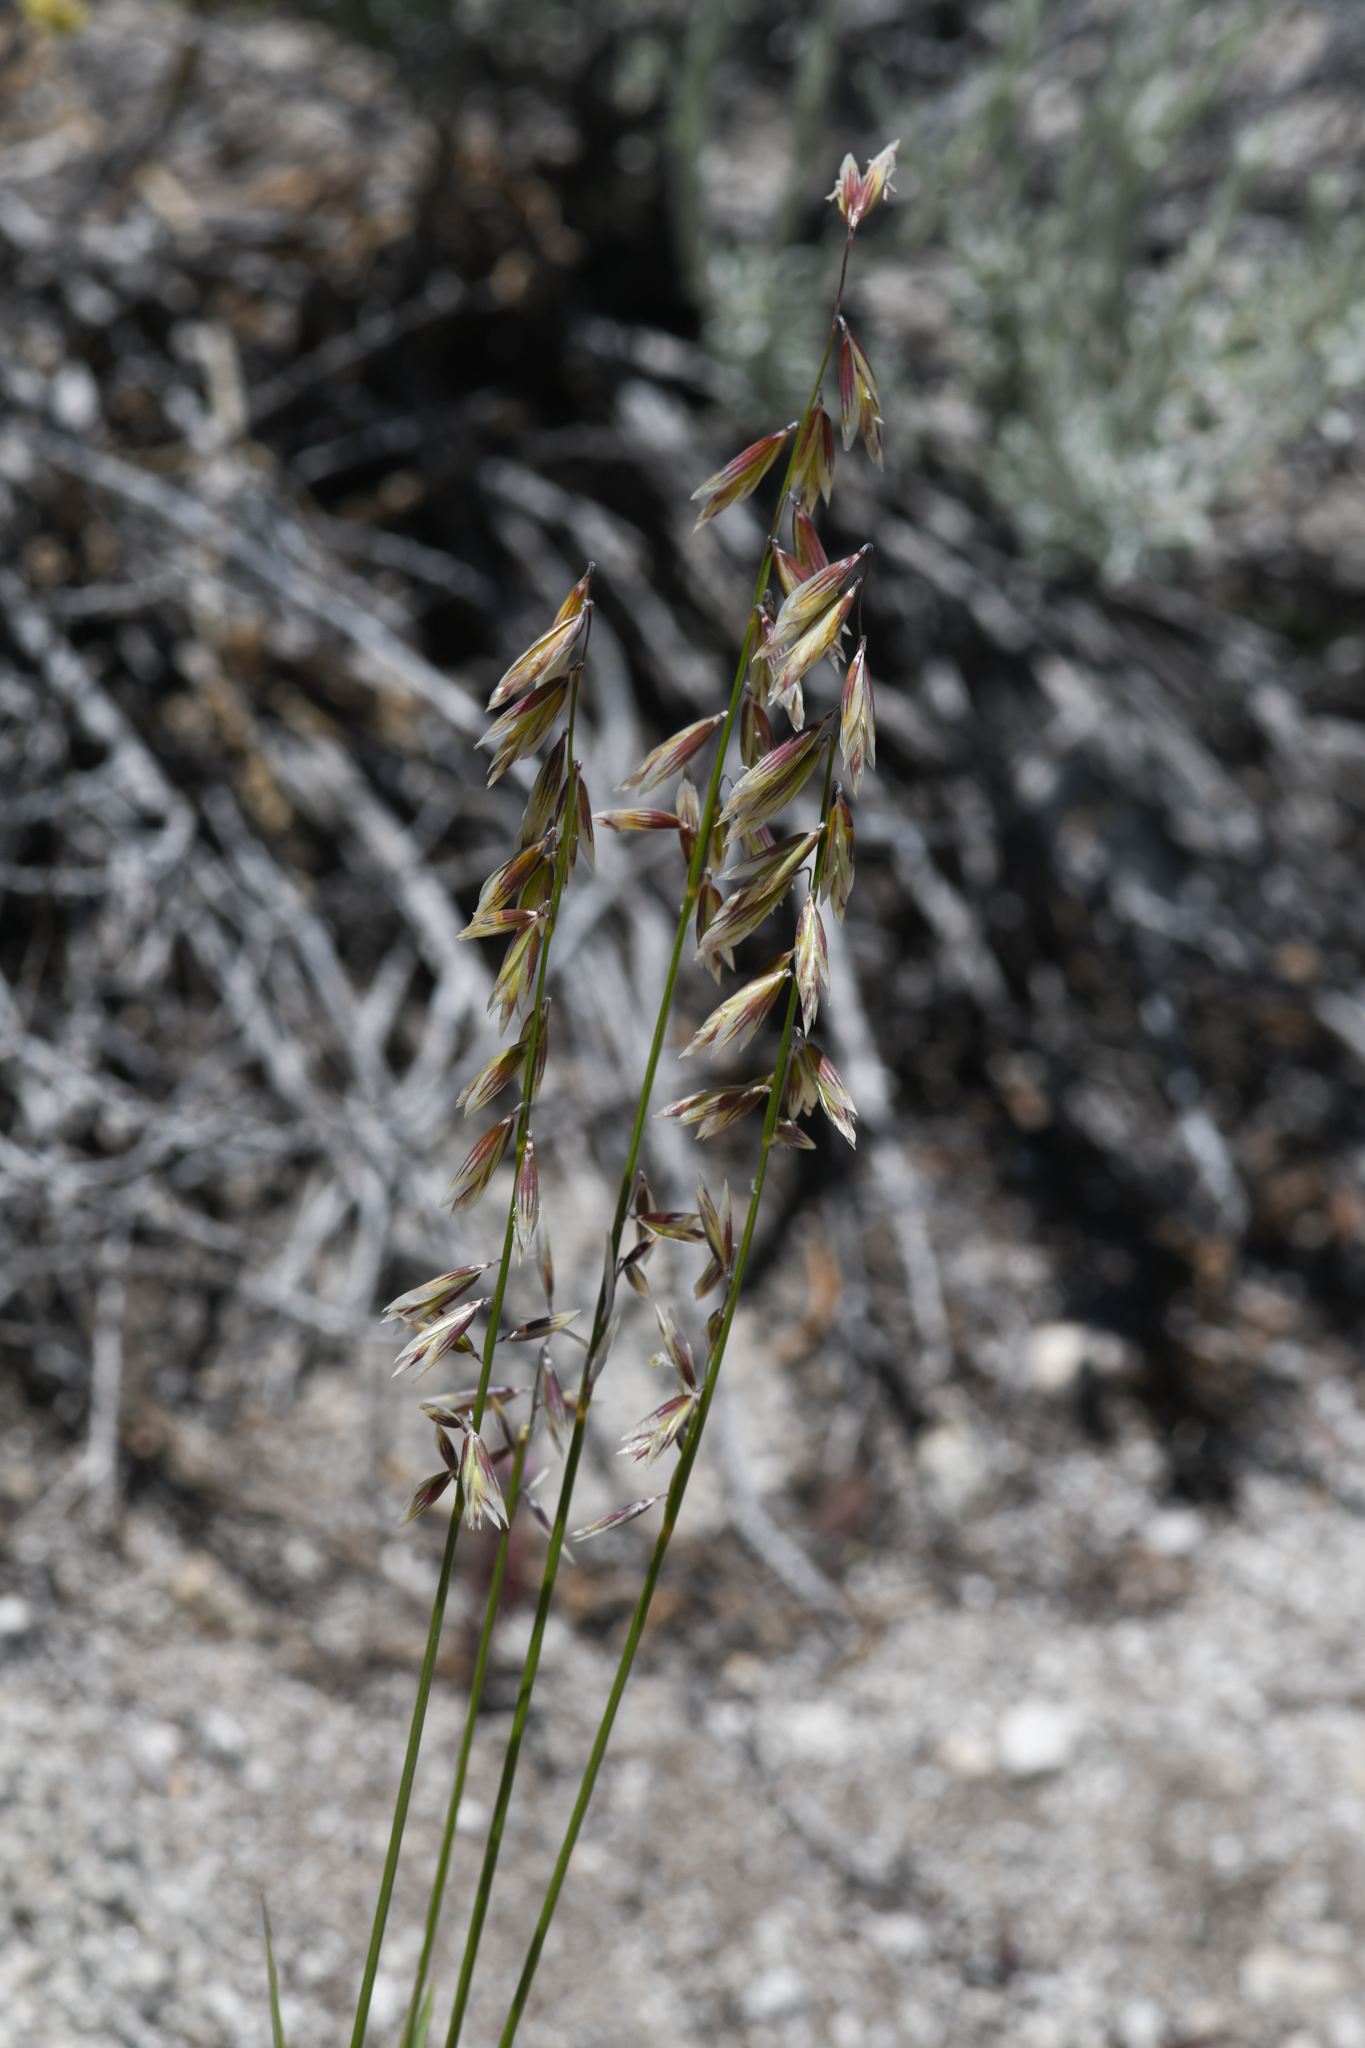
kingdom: Plantae
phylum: Tracheophyta
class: Liliopsida
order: Poales
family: Poaceae
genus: Melica
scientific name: Melica stricta
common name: Rock melic
